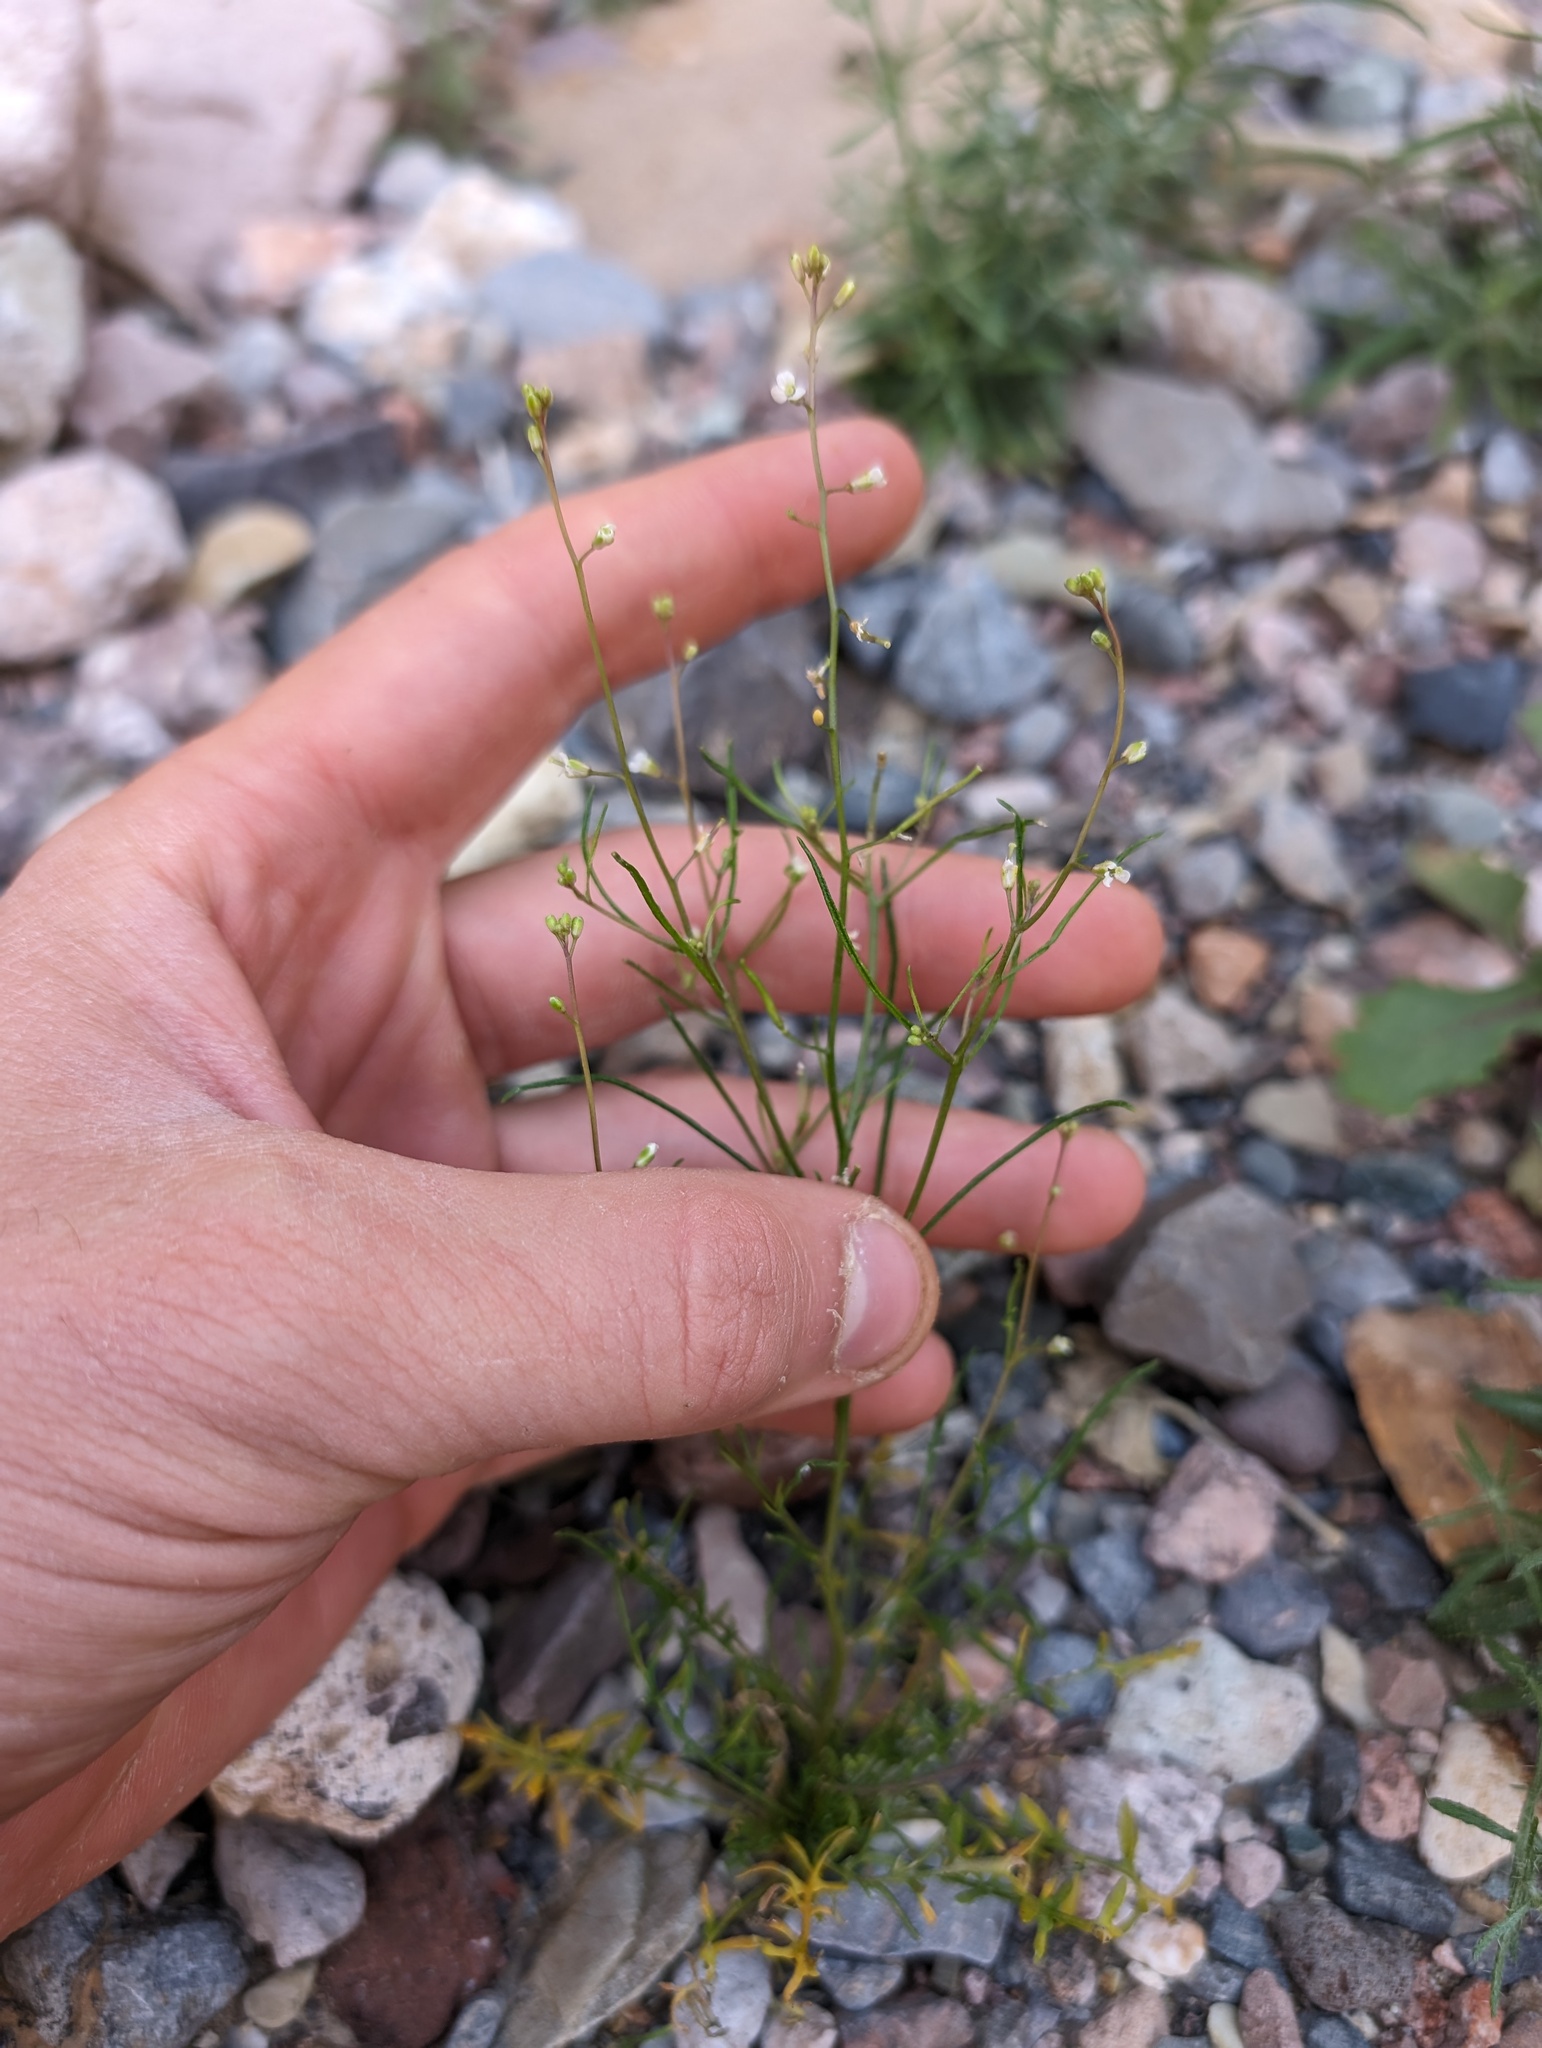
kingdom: Plantae
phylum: Tracheophyta
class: Magnoliopsida
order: Brassicales
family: Brassicaceae
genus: Sibara
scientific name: Sibara deserti
